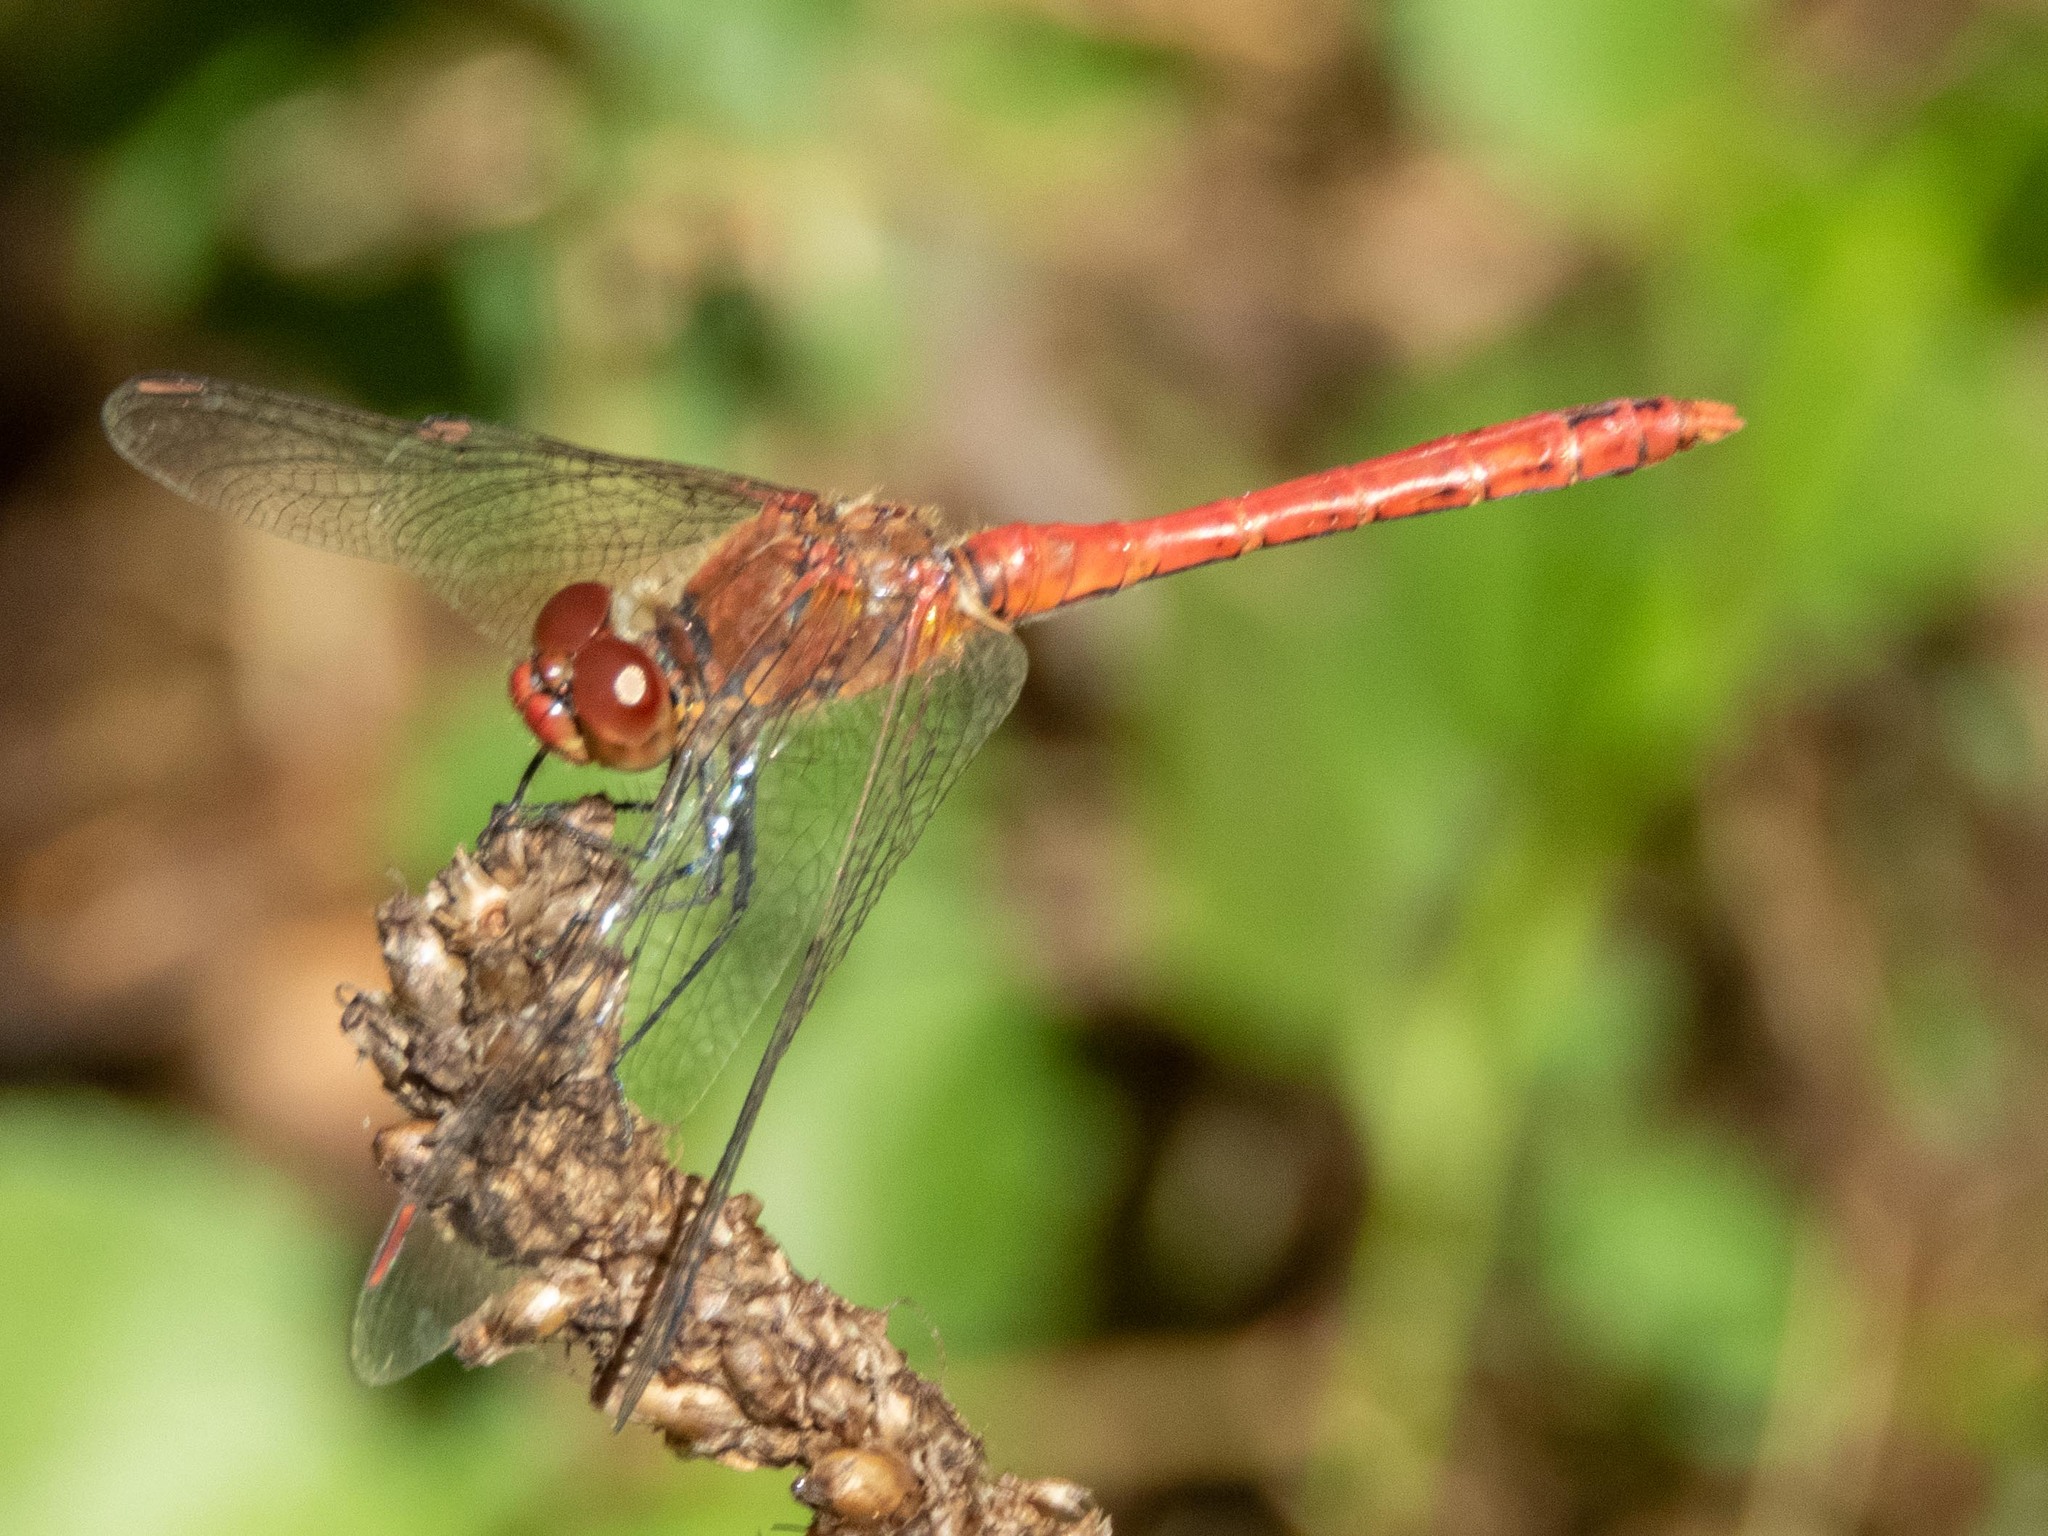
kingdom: Animalia
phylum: Arthropoda
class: Insecta
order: Odonata
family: Libellulidae
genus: Sympetrum
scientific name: Sympetrum sanguineum
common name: Ruddy darter
